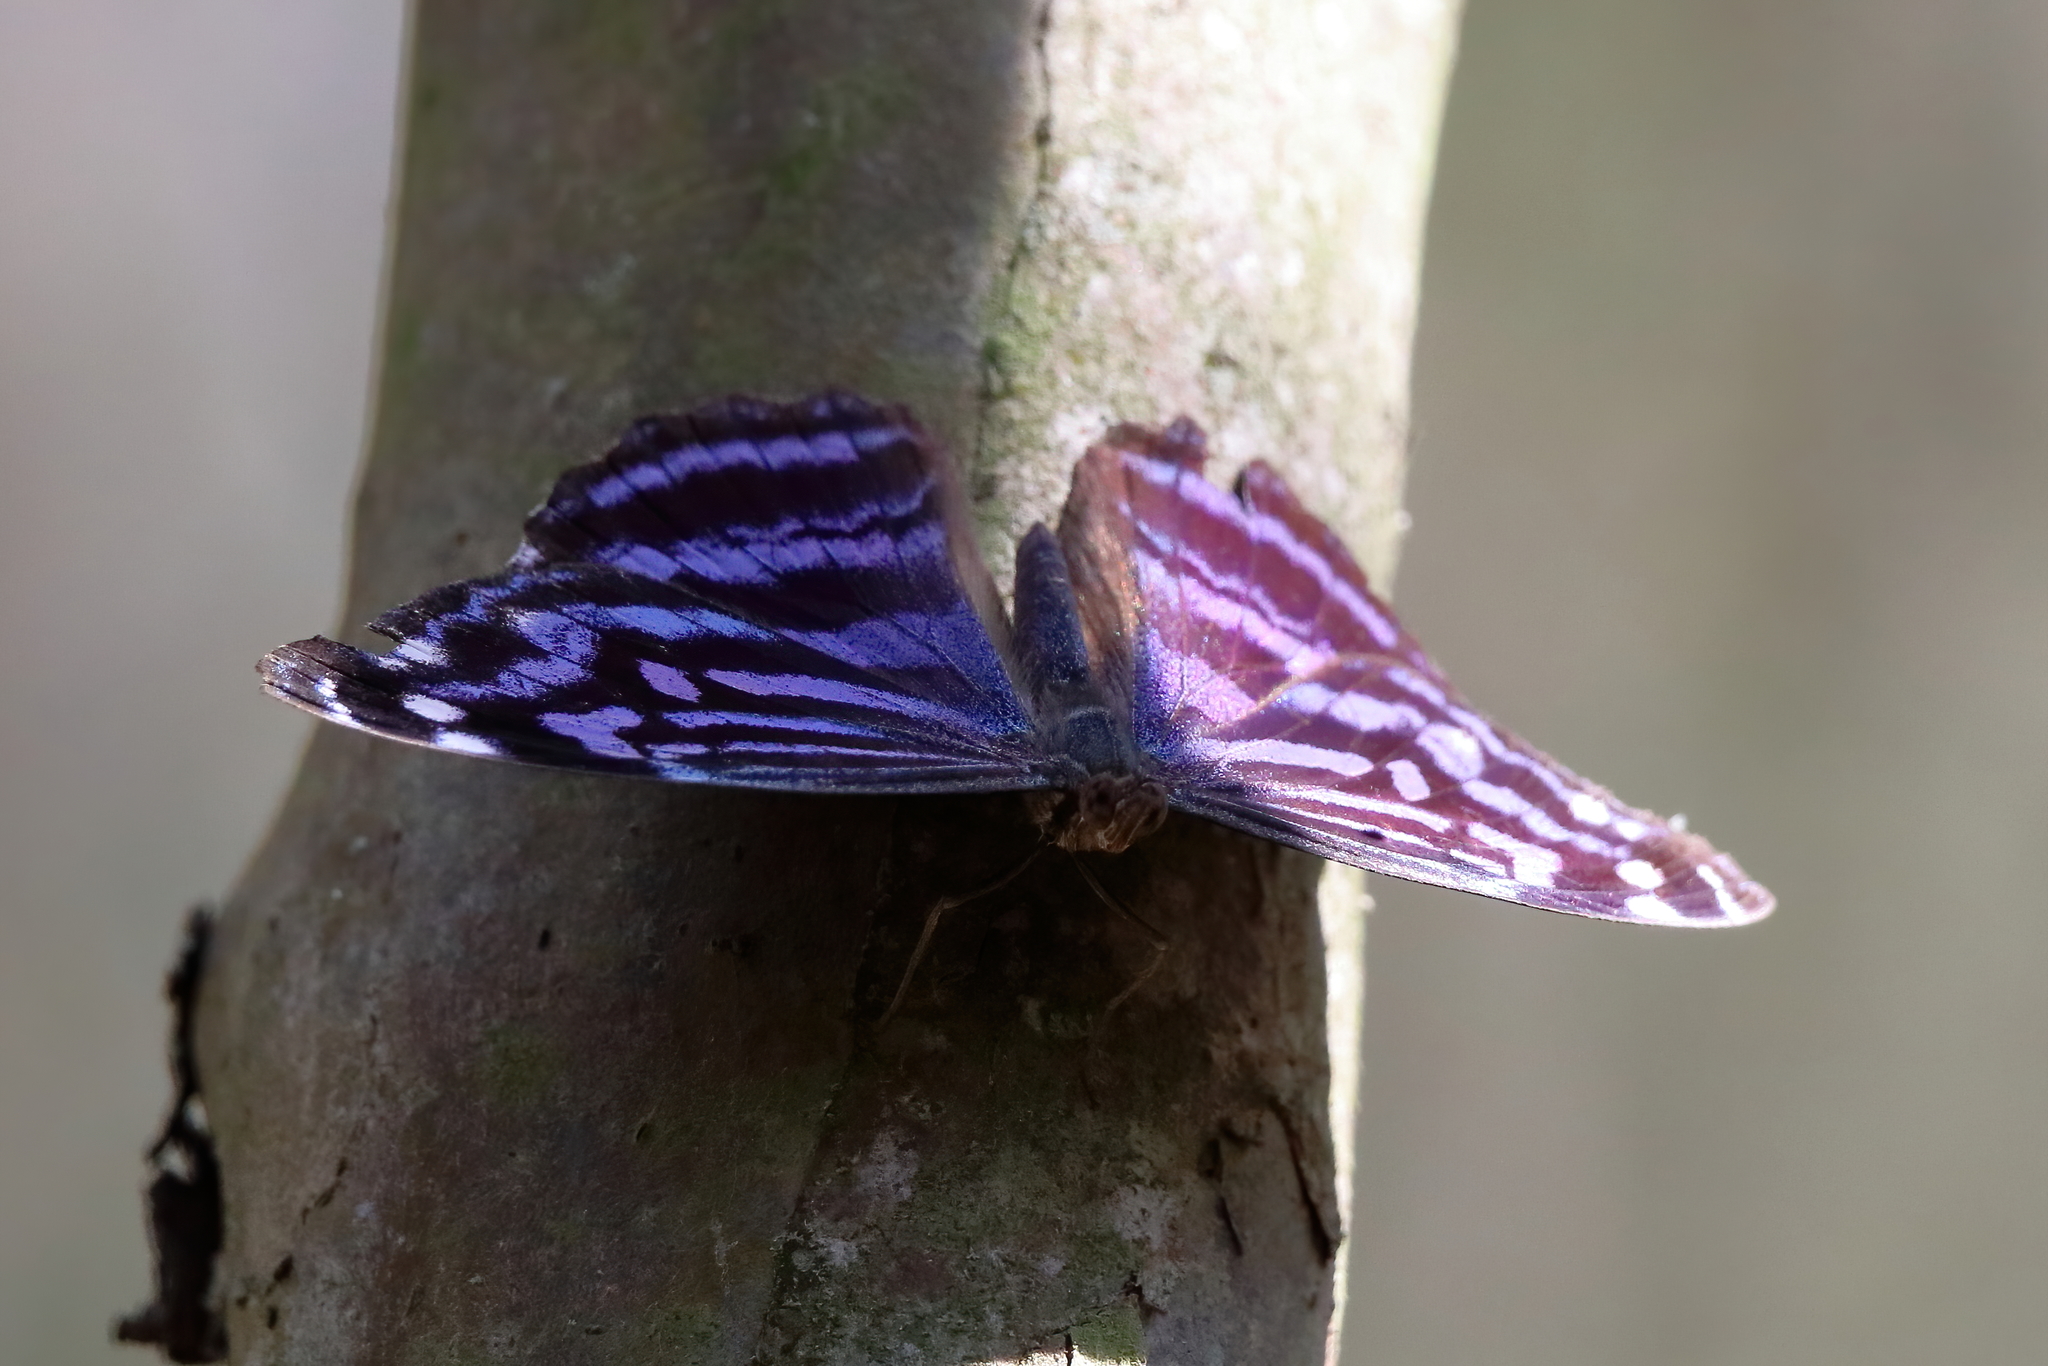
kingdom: Animalia
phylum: Arthropoda
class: Insecta
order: Lepidoptera
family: Nymphalidae
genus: Myscelia
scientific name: Myscelia ethusa
